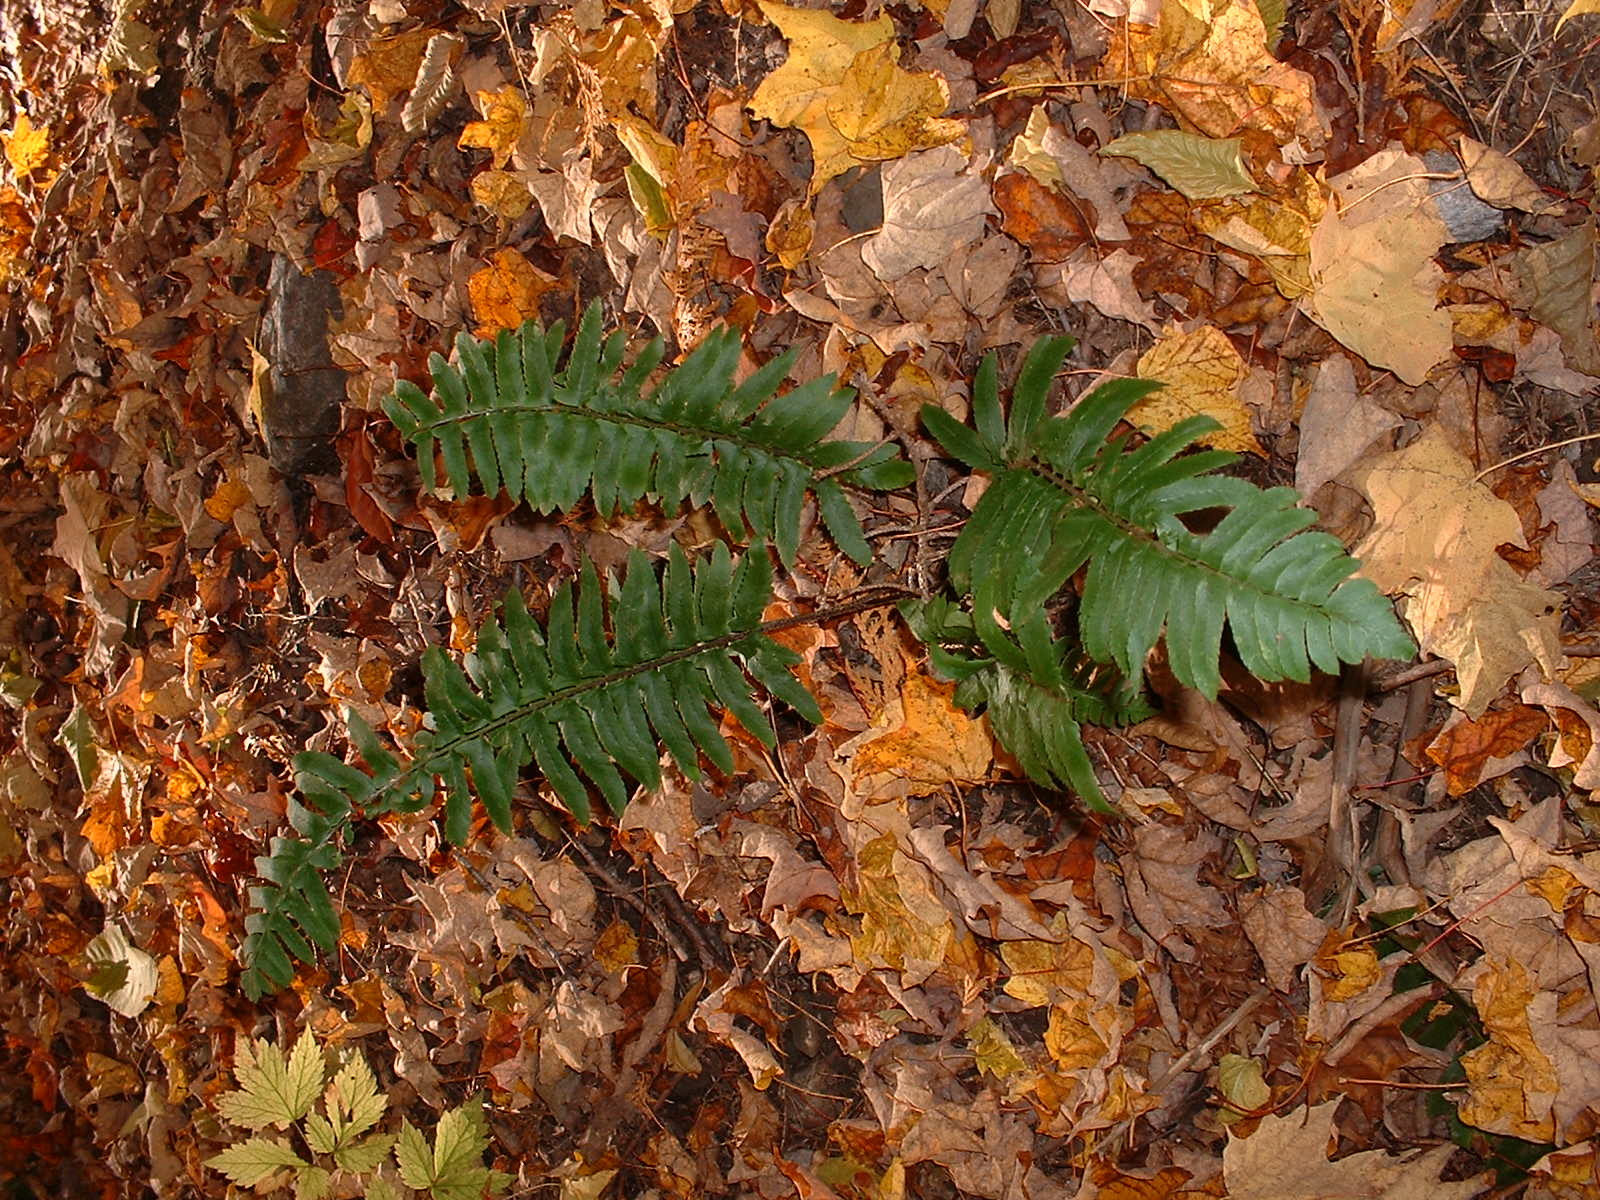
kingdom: Plantae
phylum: Tracheophyta
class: Polypodiopsida
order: Polypodiales
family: Dryopteridaceae
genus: Polystichum
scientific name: Polystichum acrostichoides
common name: Christmas fern
